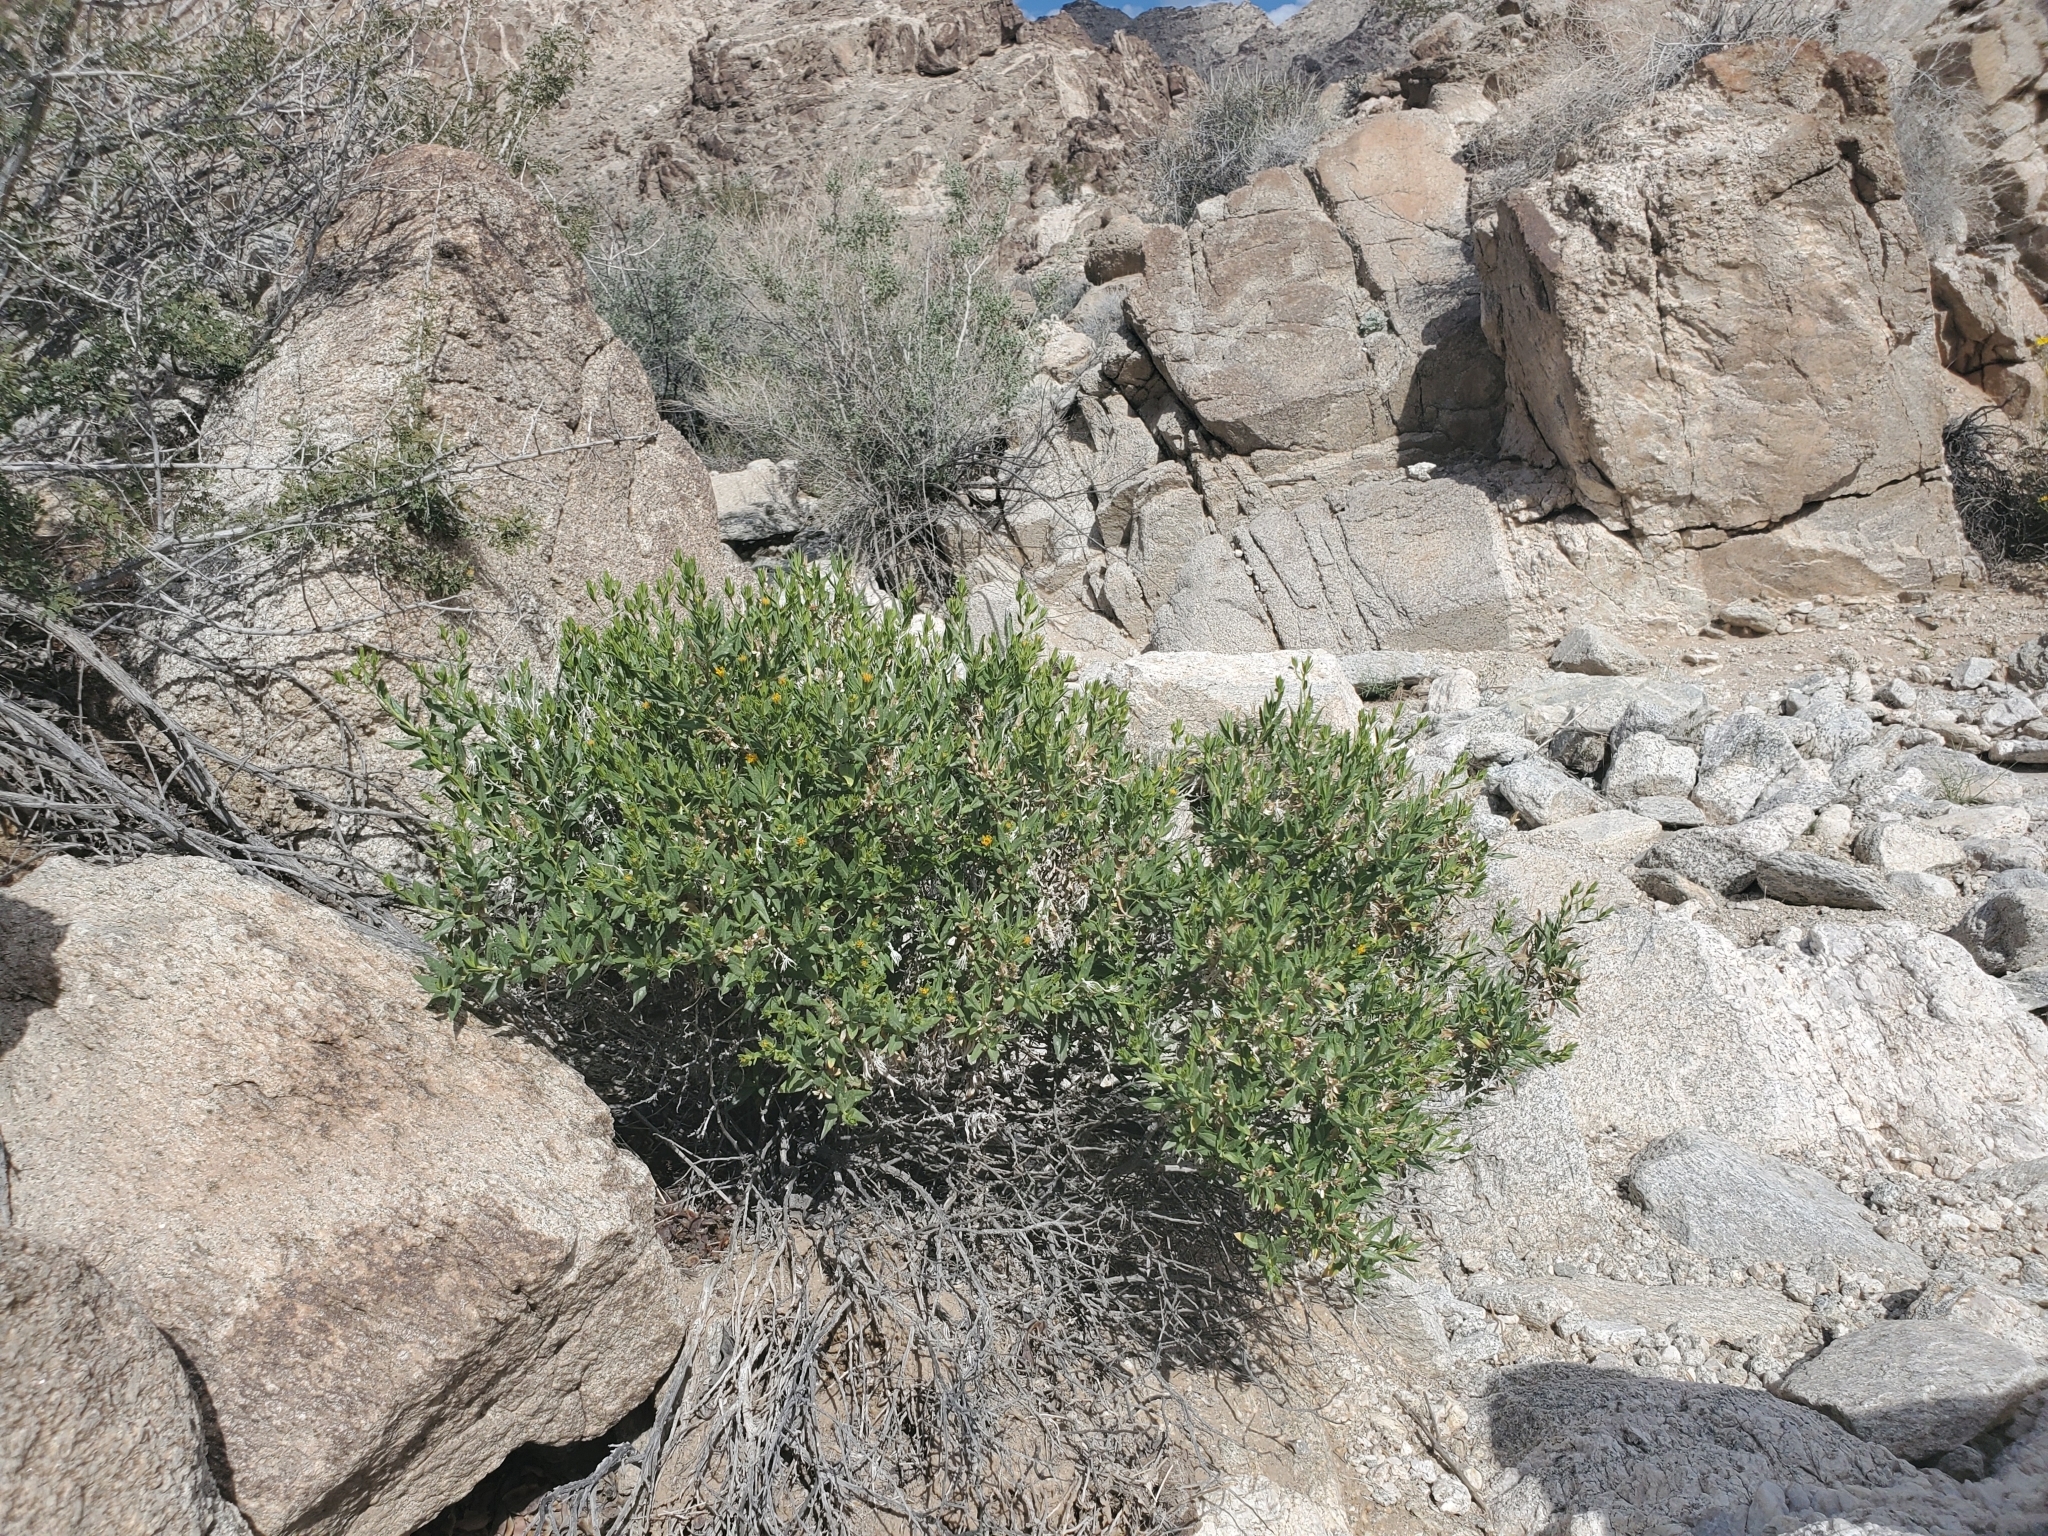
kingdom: Plantae
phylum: Tracheophyta
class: Magnoliopsida
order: Asterales
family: Asteraceae
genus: Trixis
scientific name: Trixis californica
